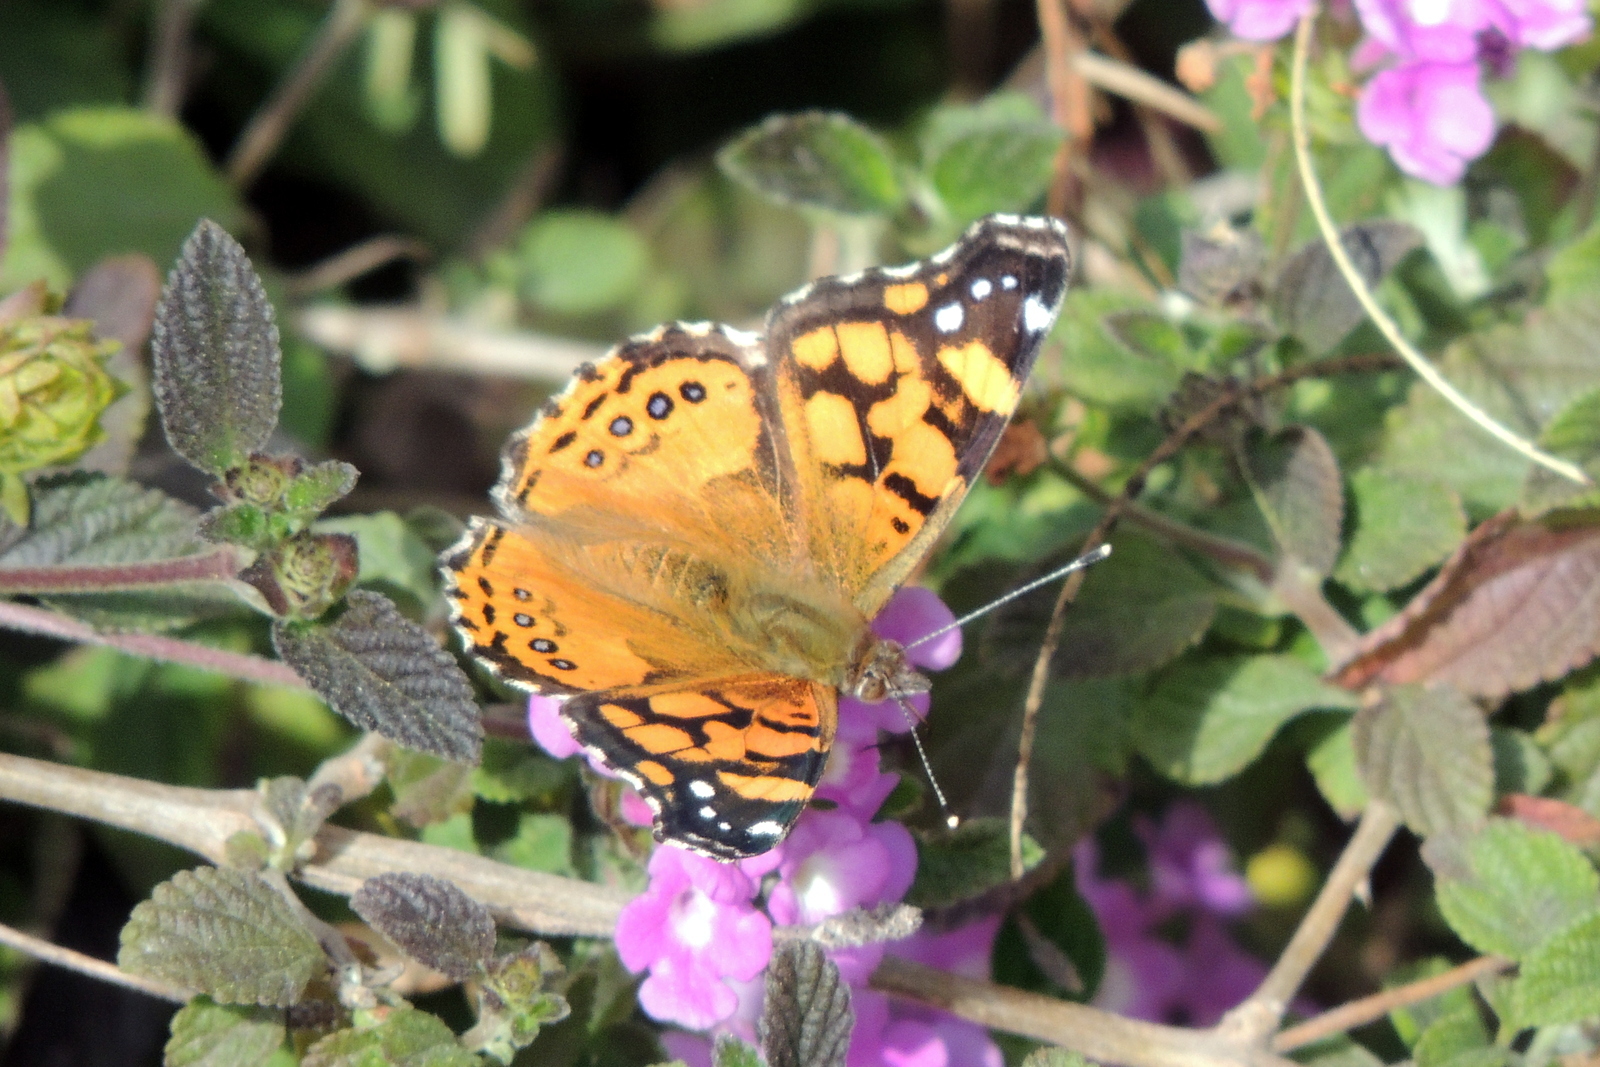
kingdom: Animalia
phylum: Arthropoda
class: Insecta
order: Lepidoptera
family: Nymphalidae
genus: Vanessa
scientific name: Vanessa annabella
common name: West coast lady
